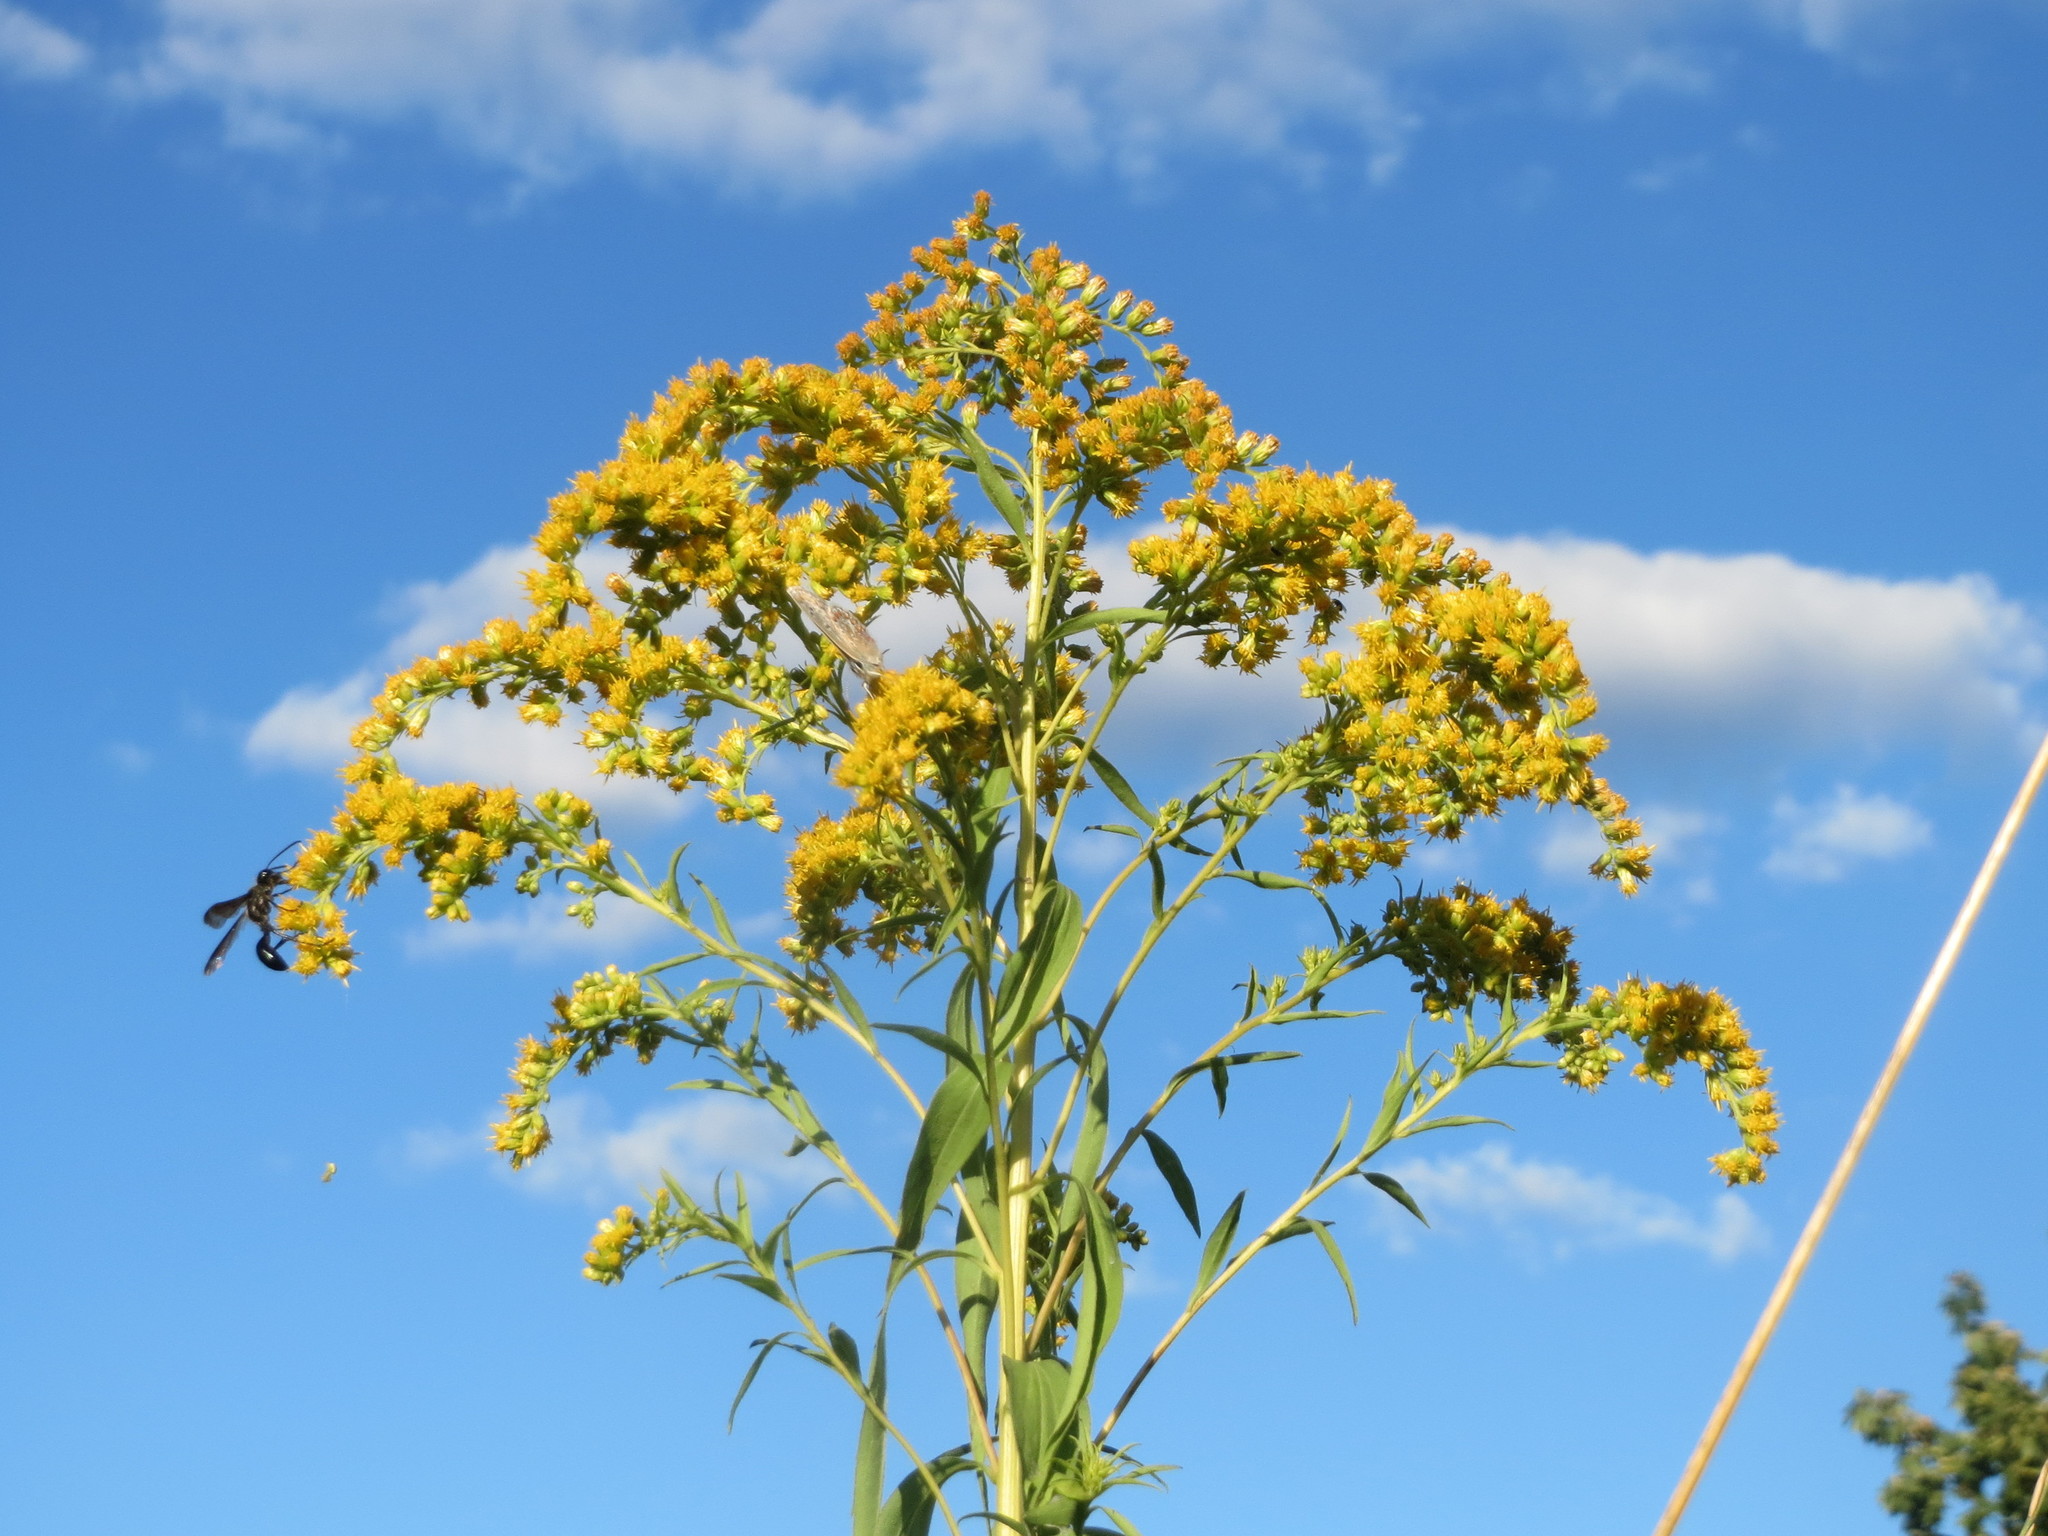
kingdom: Plantae
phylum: Tracheophyta
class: Magnoliopsida
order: Asterales
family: Asteraceae
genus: Solidago
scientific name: Solidago gigantea
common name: Giant goldenrod
